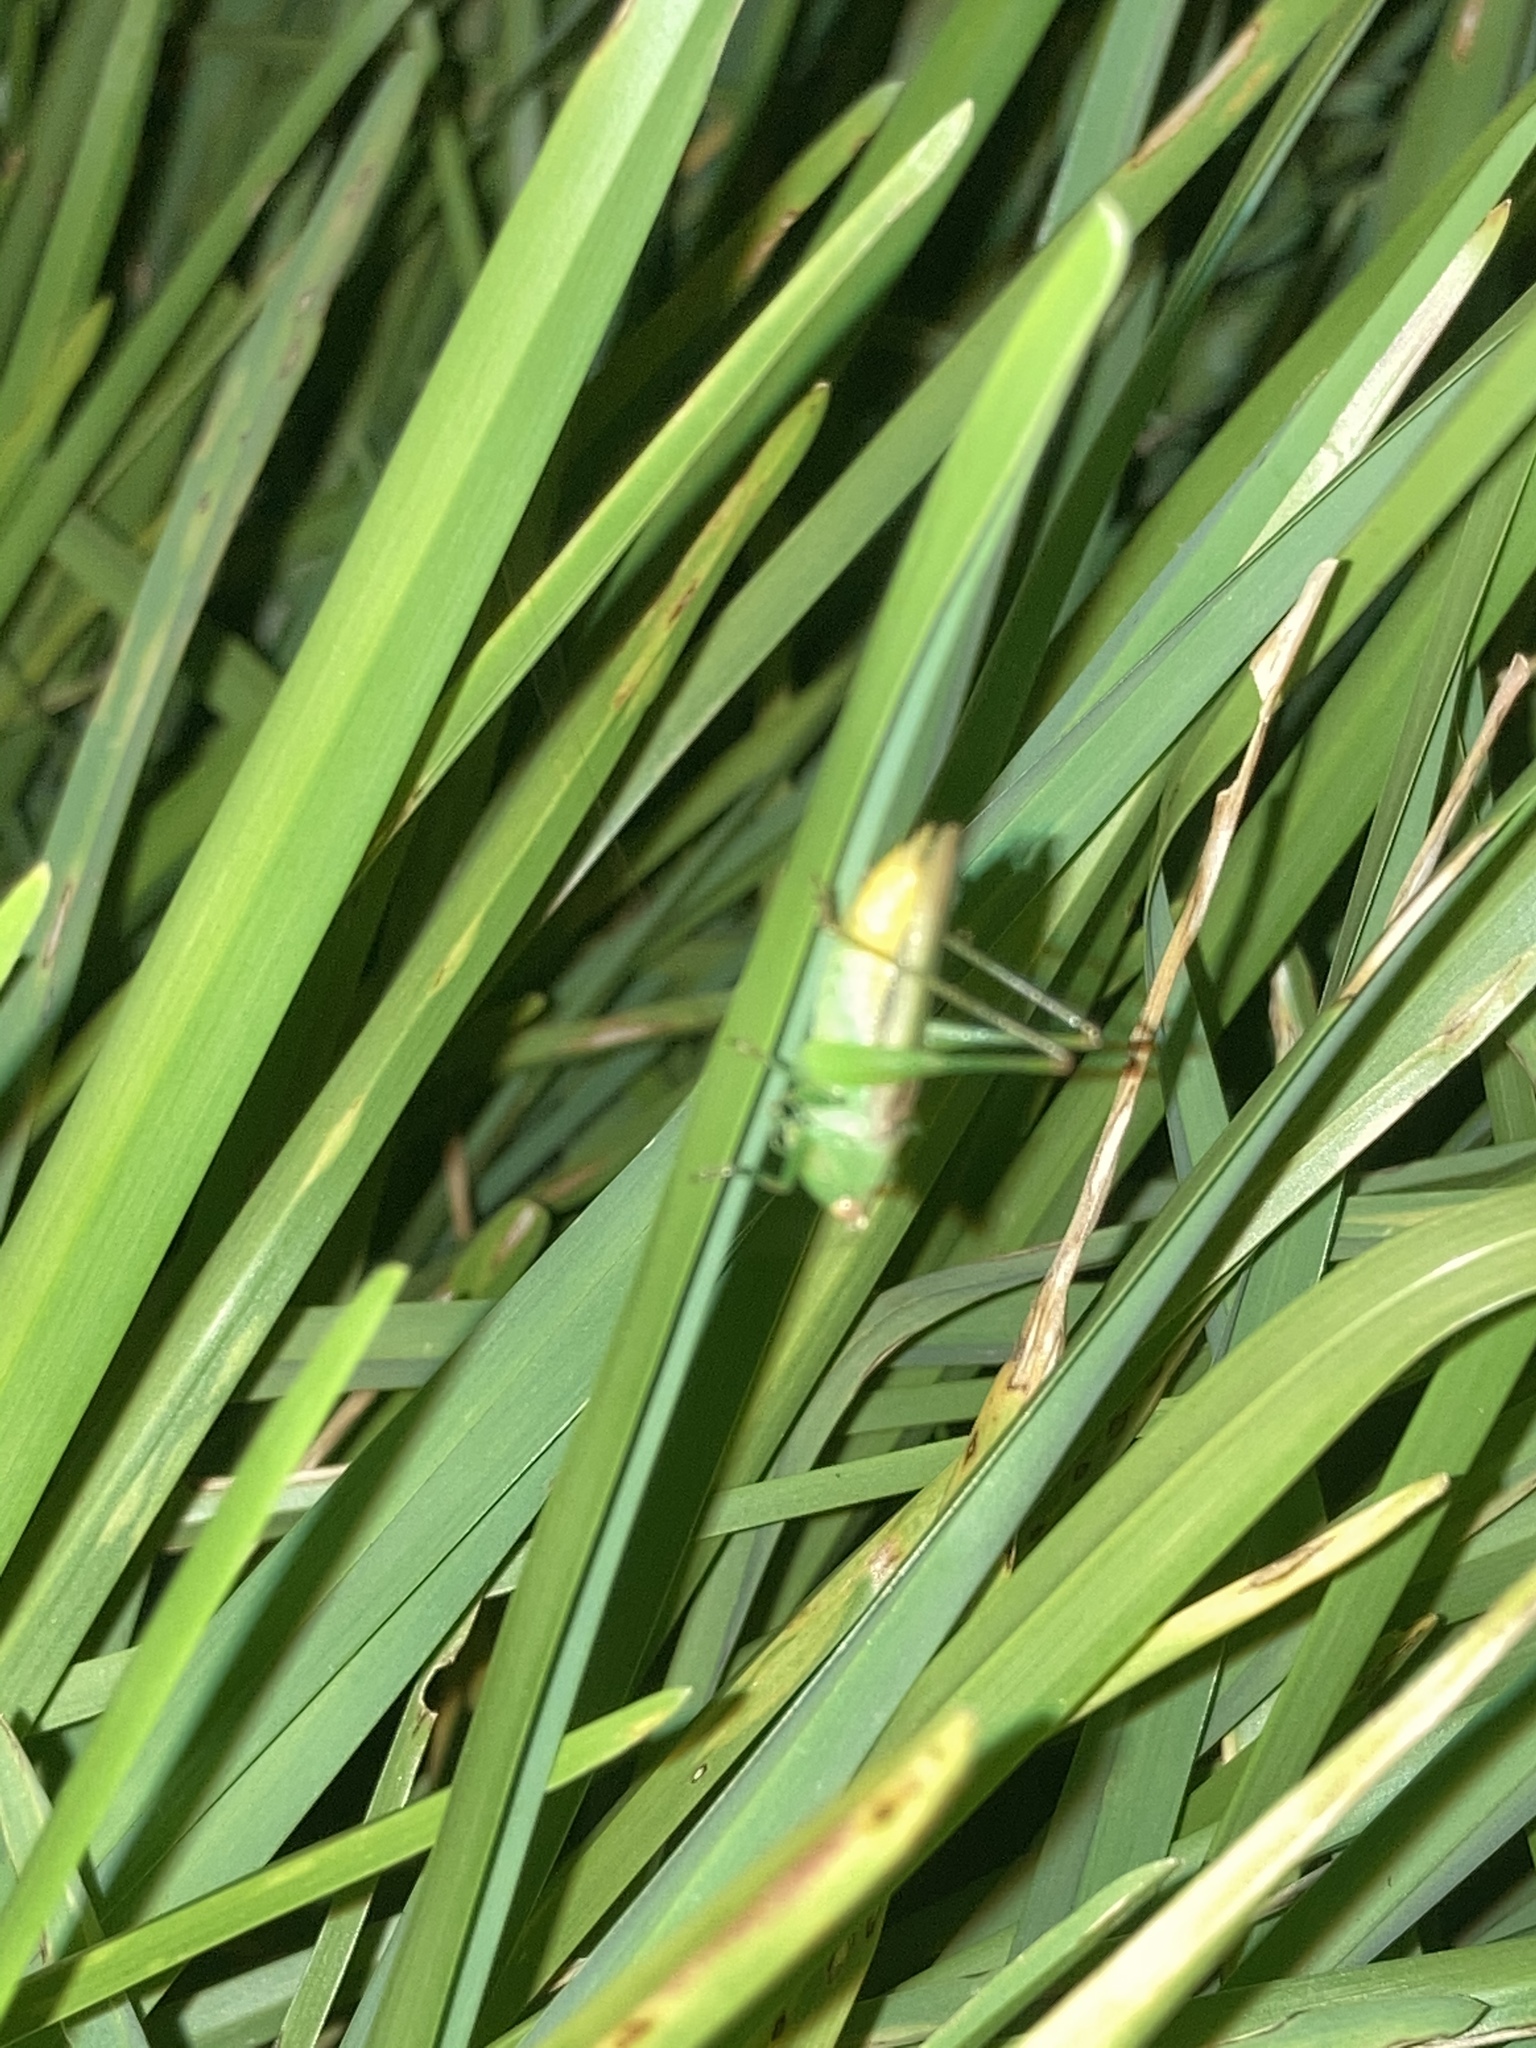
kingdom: Animalia
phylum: Arthropoda
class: Insecta
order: Orthoptera
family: Tettigoniidae
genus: Conocephalus
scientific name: Conocephalus cinereus
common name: Caribbean meadow katydid
